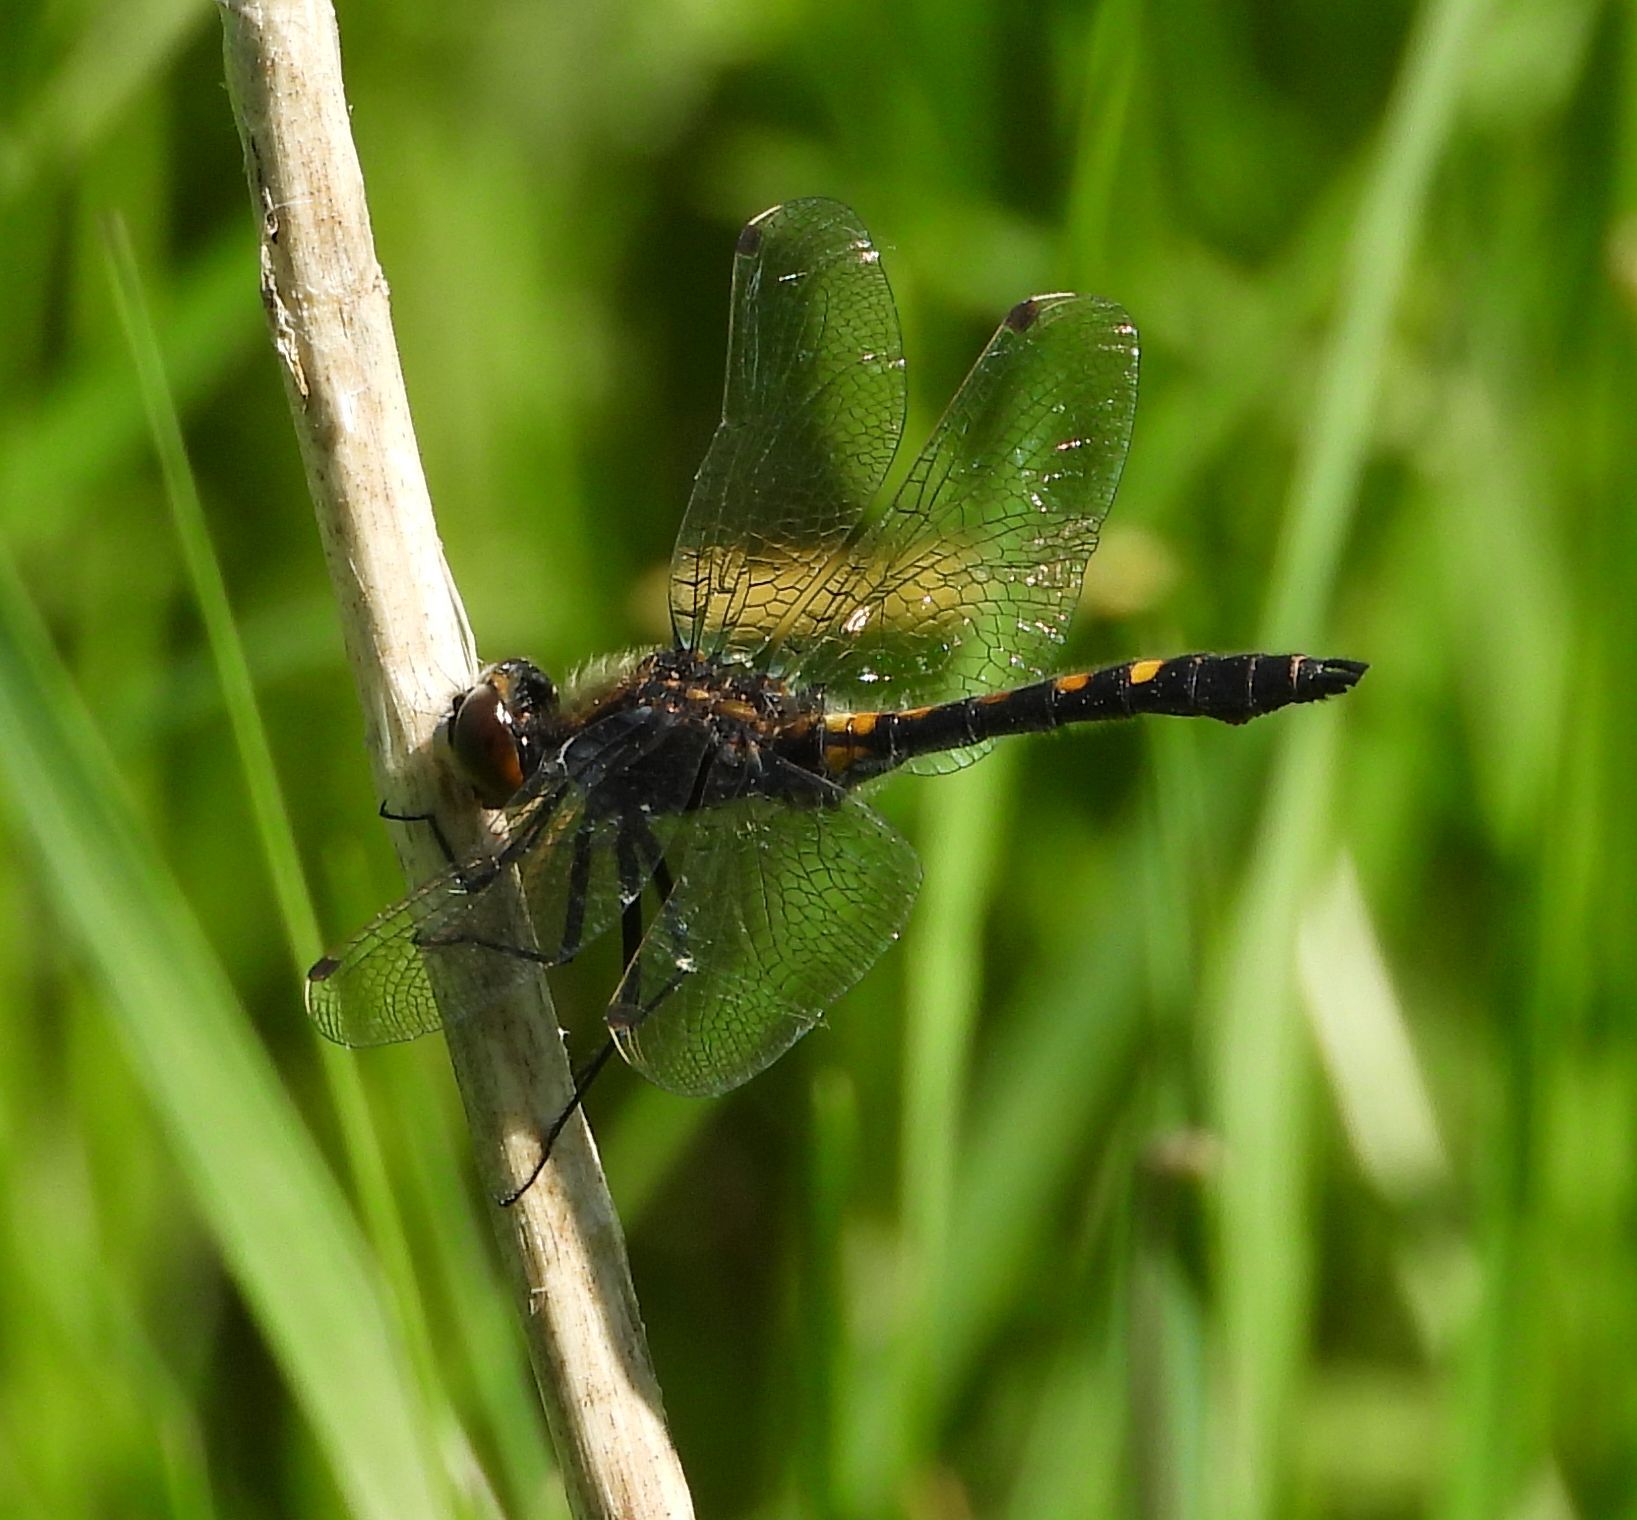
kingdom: Animalia
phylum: Arthropoda
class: Insecta
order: Odonata
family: Libellulidae
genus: Leucorrhinia
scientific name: Leucorrhinia intacta
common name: Dot-tailed whiteface
